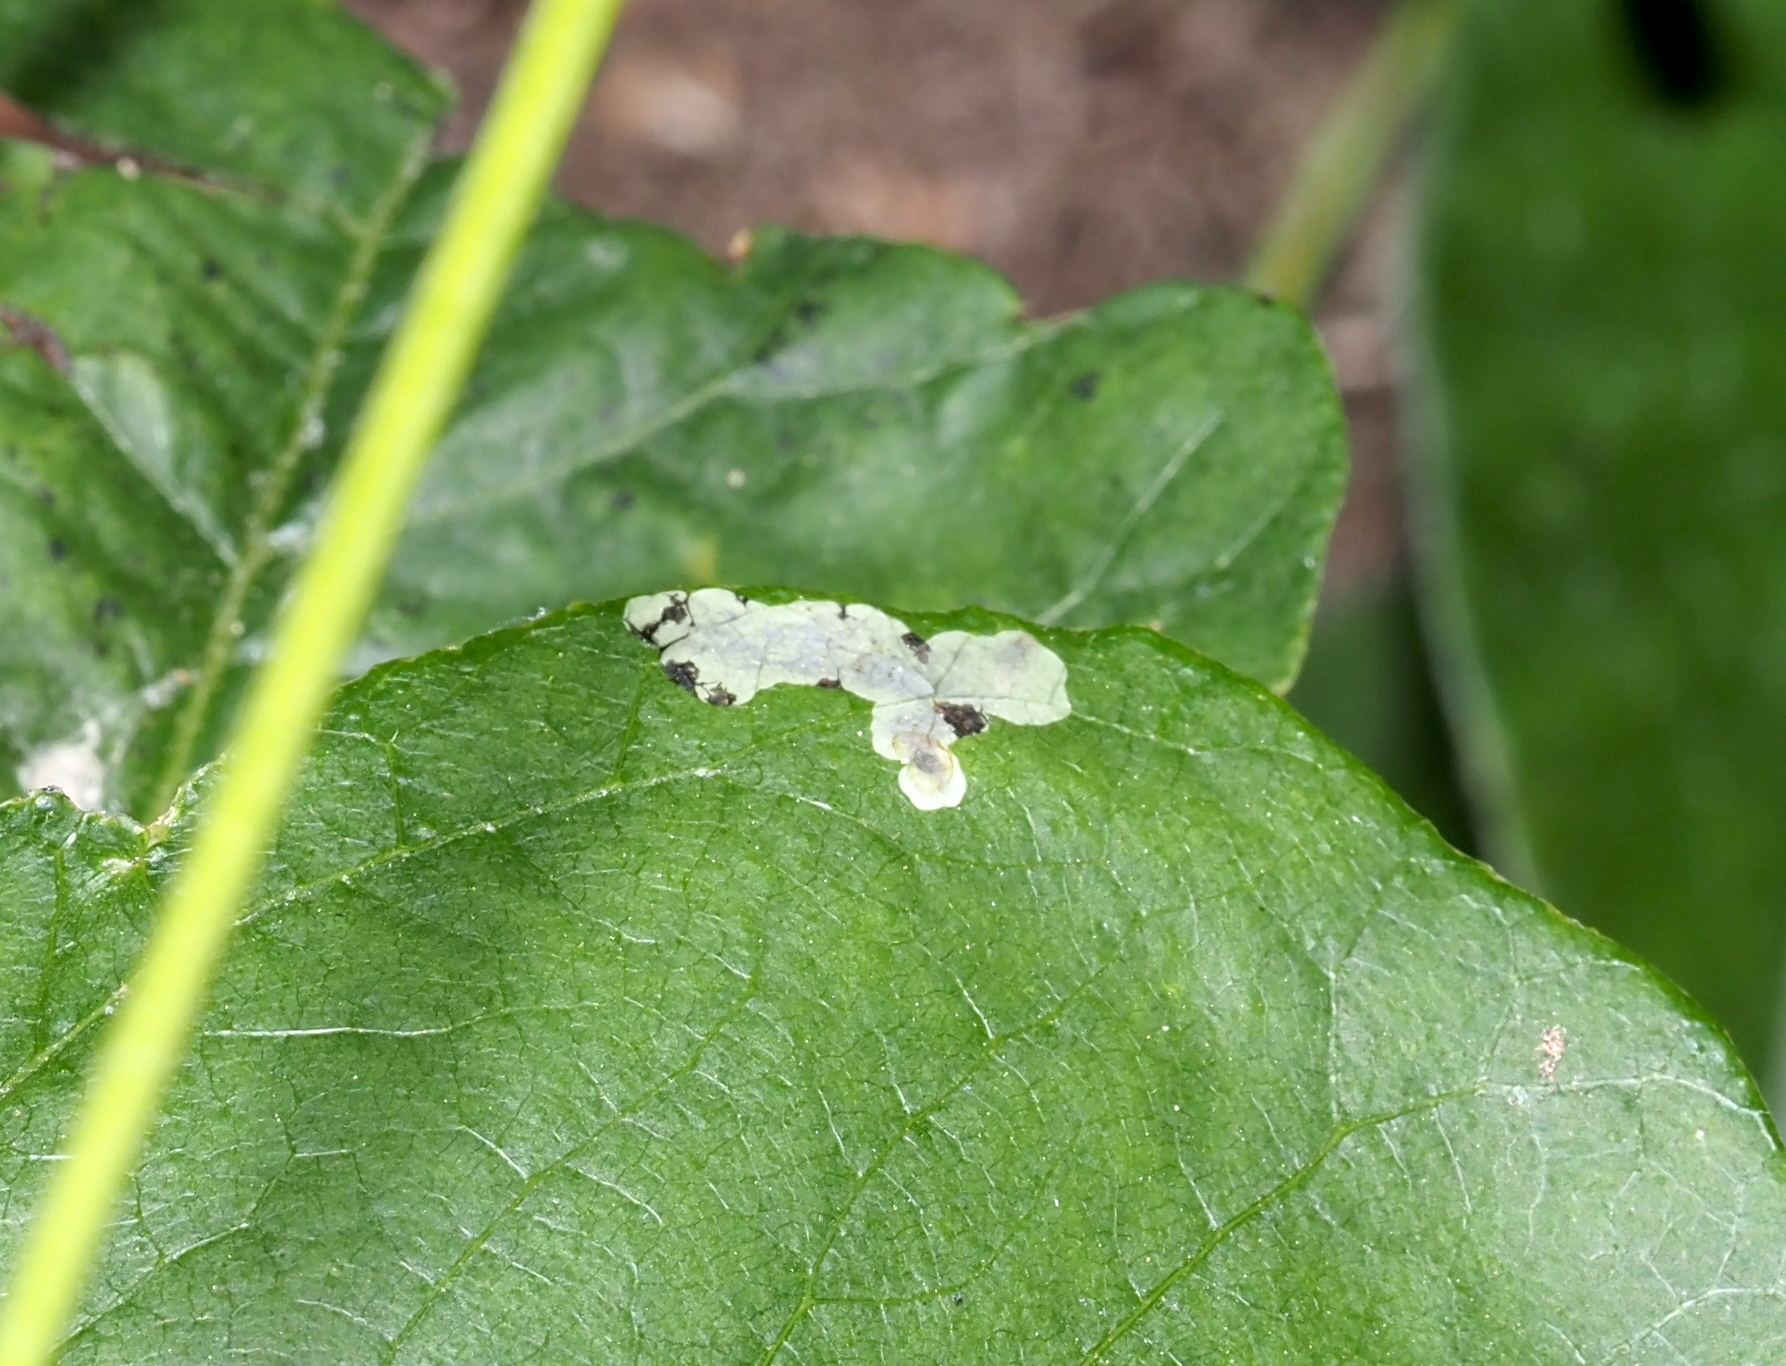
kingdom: Animalia
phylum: Arthropoda
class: Insecta
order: Lepidoptera
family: Gracillariidae
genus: Cameraria
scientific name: Cameraria guttifinitella
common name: Poison ivy leaf-miner moth
